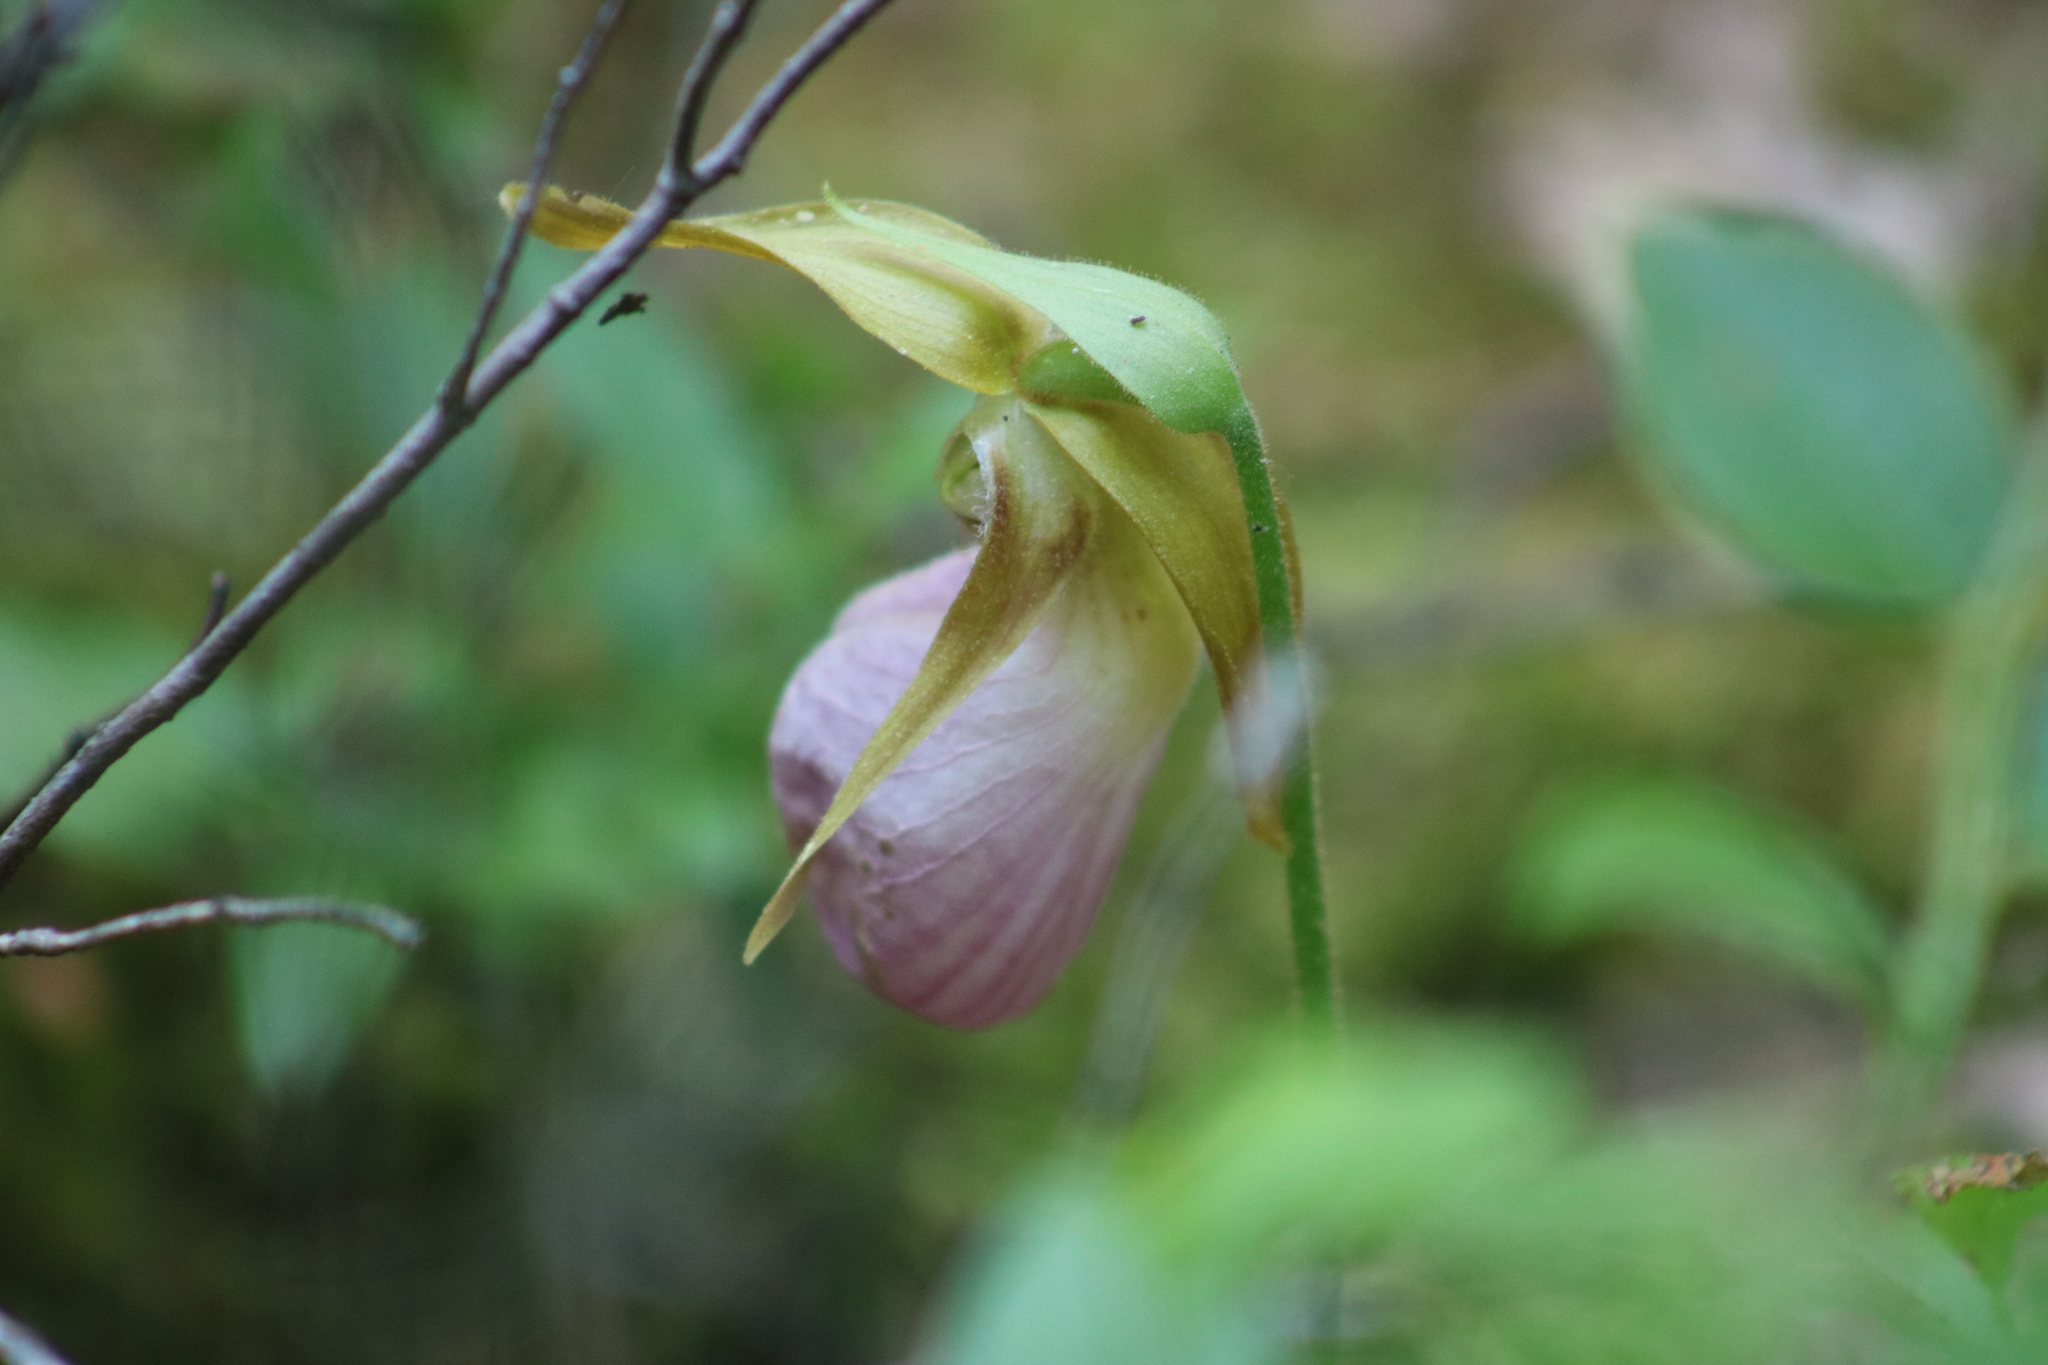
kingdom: Plantae
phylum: Tracheophyta
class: Liliopsida
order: Asparagales
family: Orchidaceae
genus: Cypripedium
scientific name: Cypripedium acaule
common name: Pink lady's-slipper
